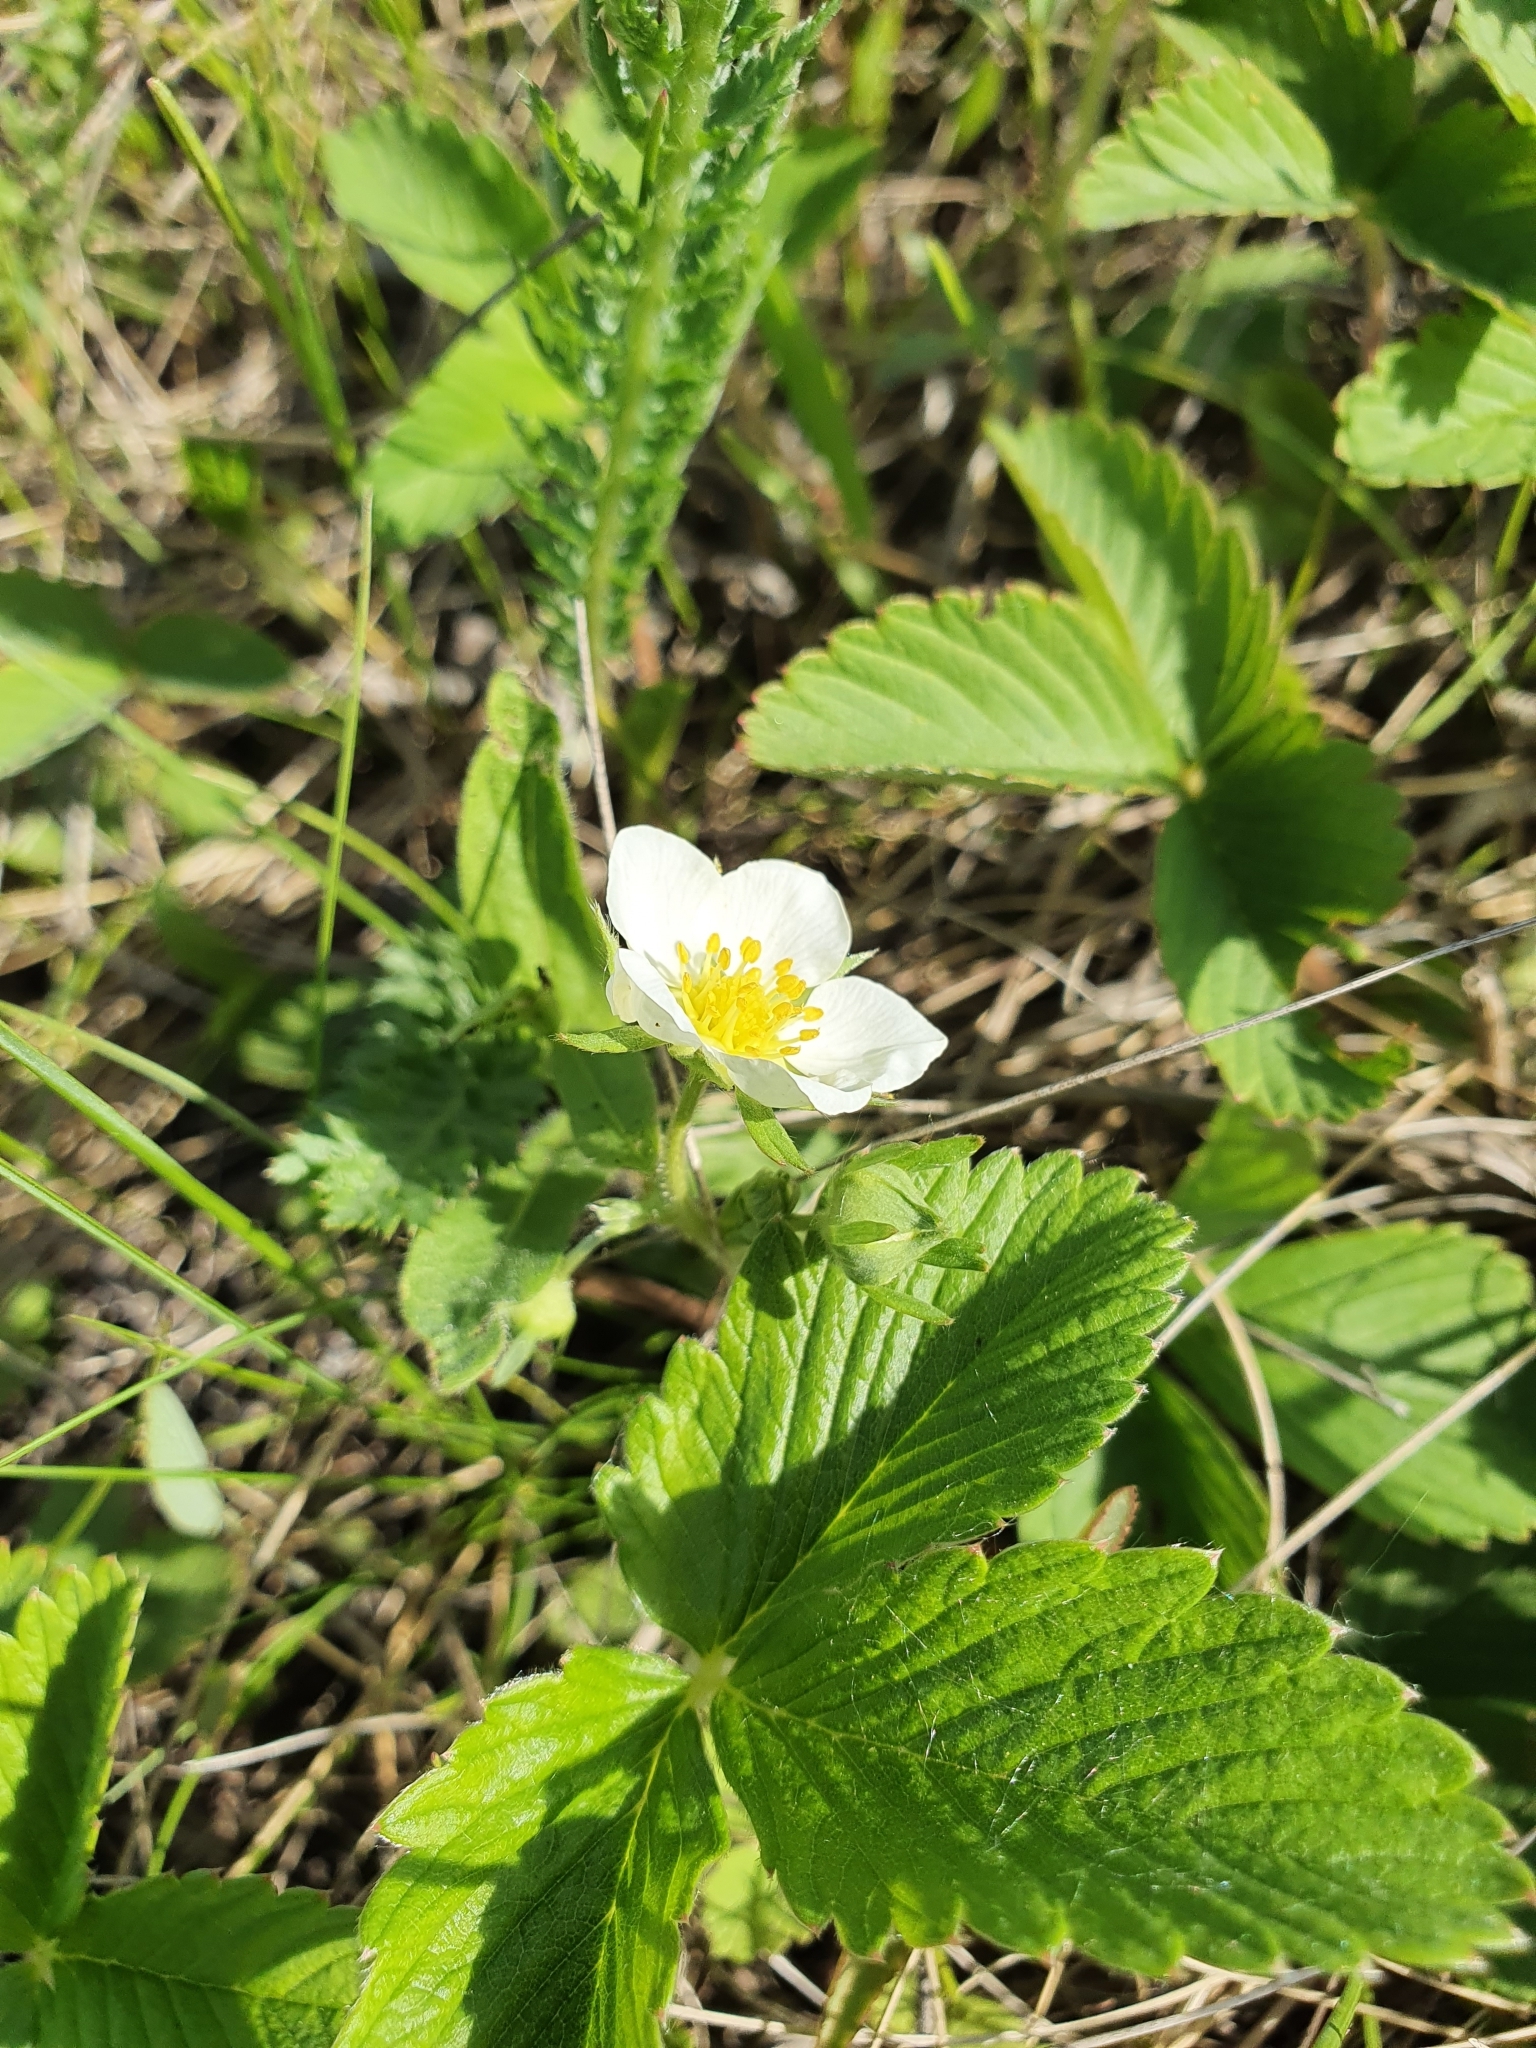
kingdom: Plantae
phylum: Tracheophyta
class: Magnoliopsida
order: Rosales
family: Rosaceae
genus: Fragaria
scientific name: Fragaria viridis
